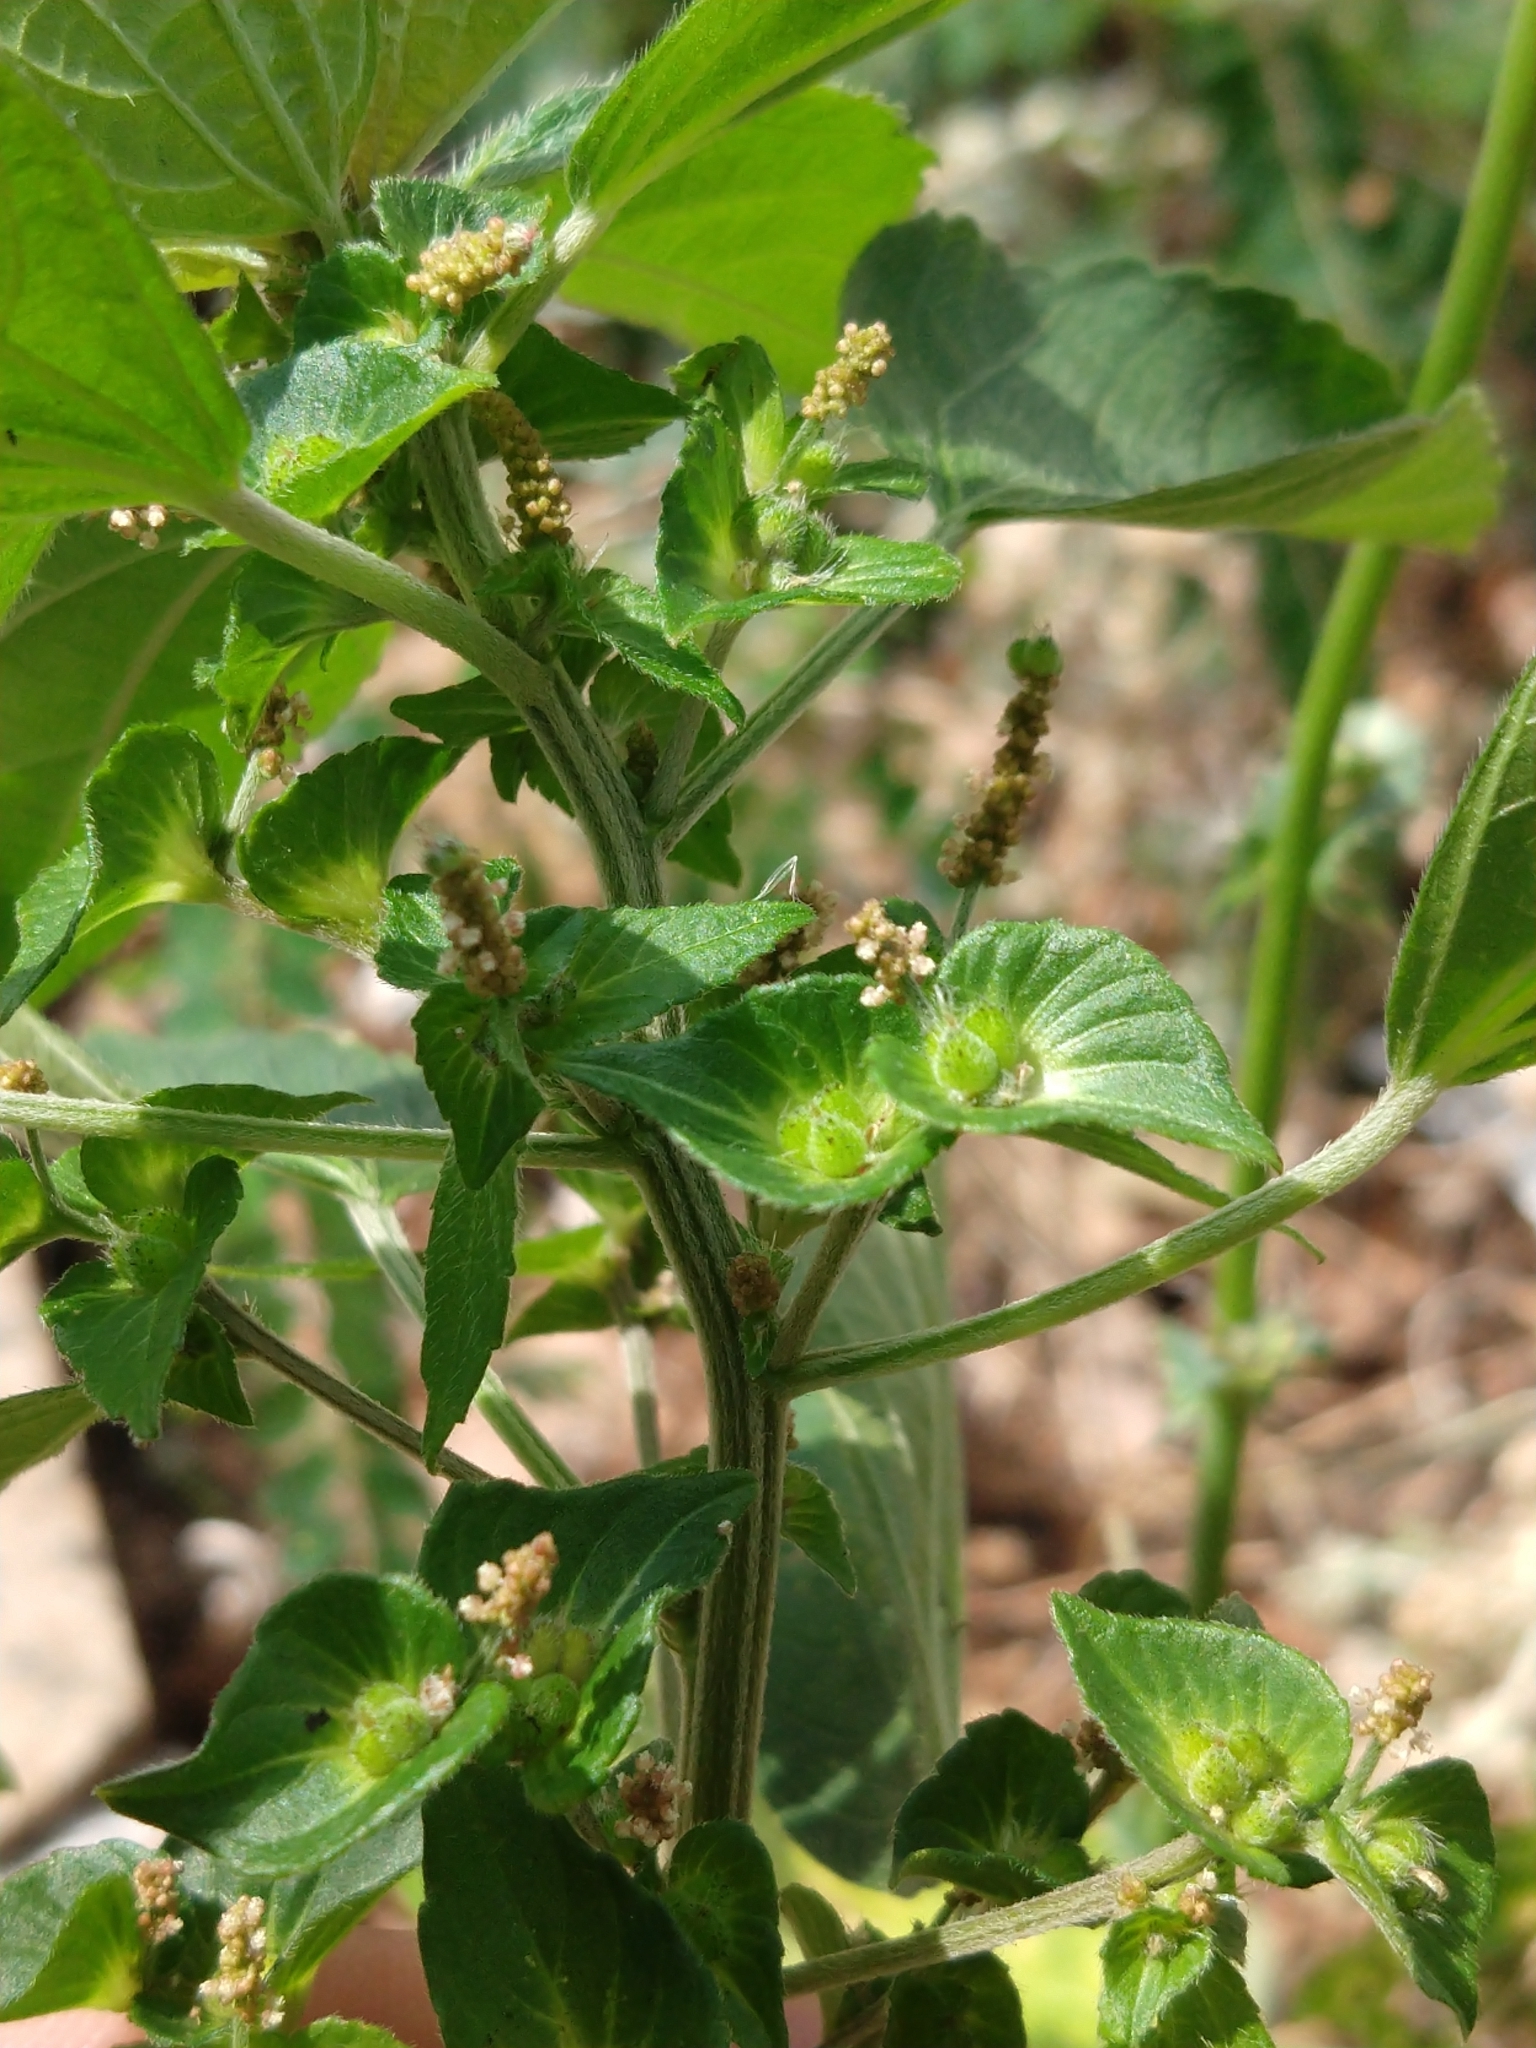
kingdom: Plantae
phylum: Tracheophyta
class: Magnoliopsida
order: Malpighiales
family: Euphorbiaceae
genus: Acalypha
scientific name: Acalypha australis
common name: Asian copperleaf
